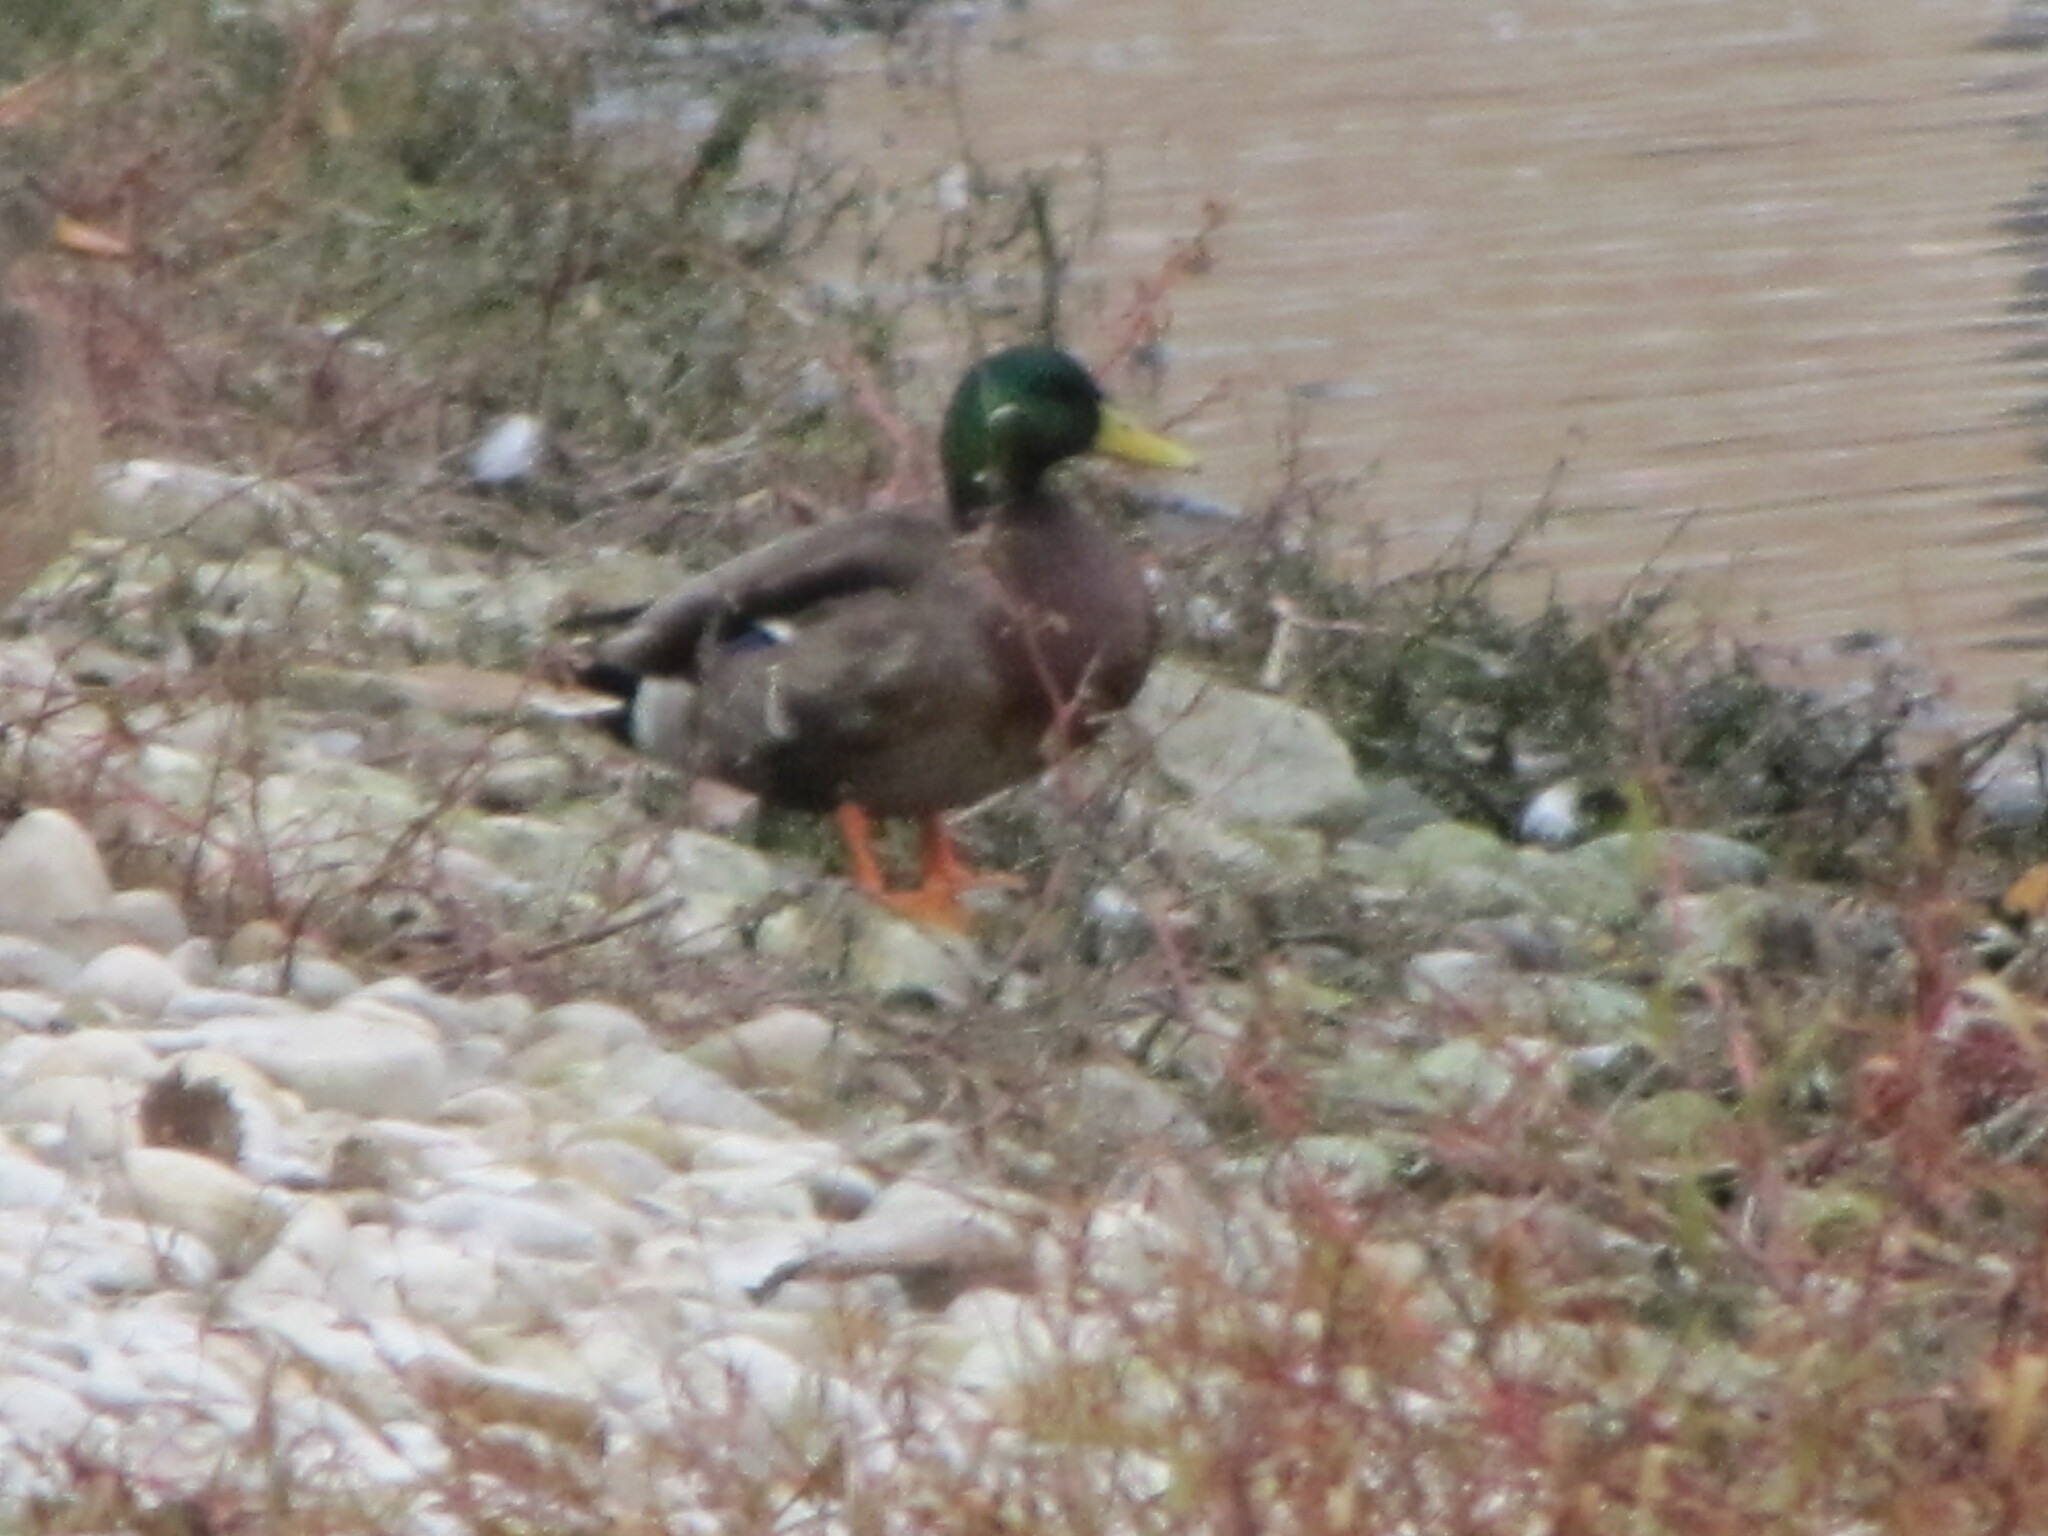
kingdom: Animalia
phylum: Chordata
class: Aves
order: Anseriformes
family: Anatidae
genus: Anas
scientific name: Anas platyrhynchos
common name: Mallard
